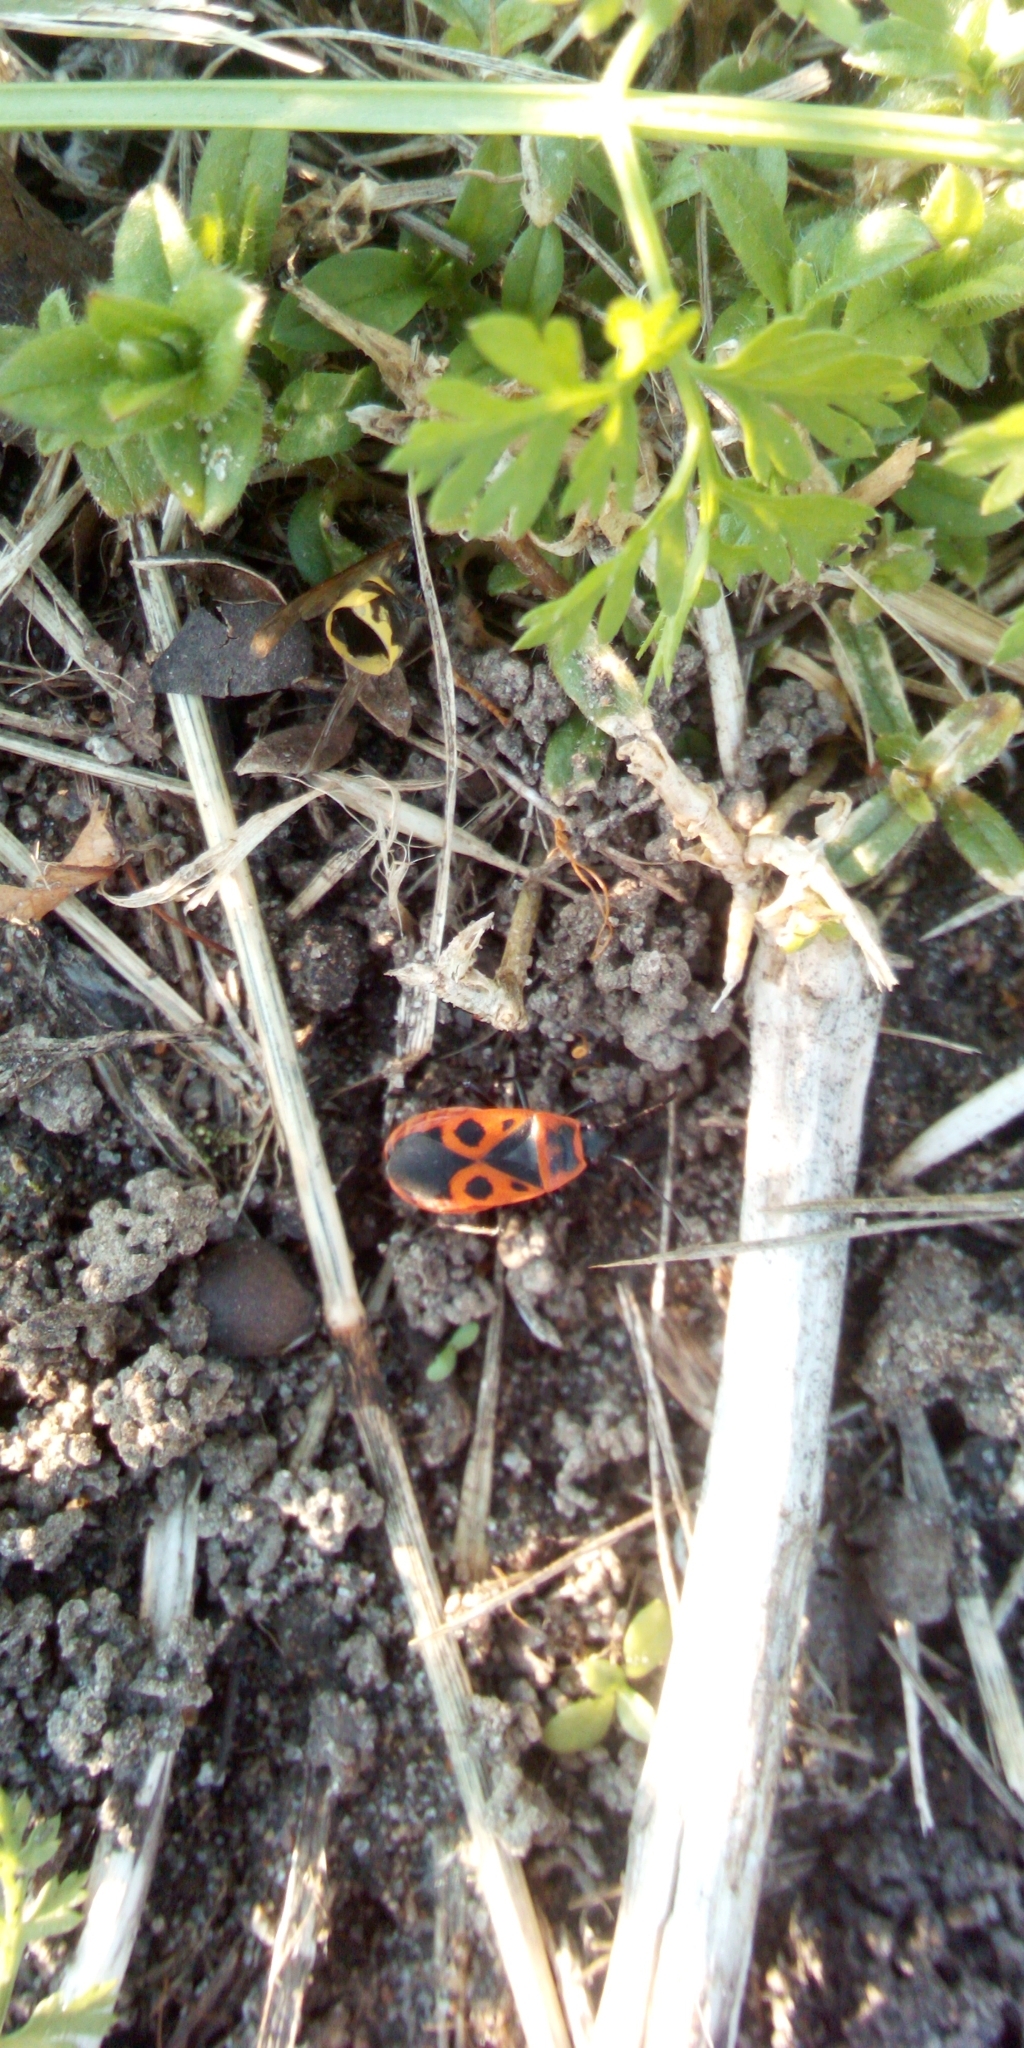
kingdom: Animalia
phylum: Arthropoda
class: Insecta
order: Hemiptera
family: Pyrrhocoridae
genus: Pyrrhocoris
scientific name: Pyrrhocoris apterus
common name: Firebug
